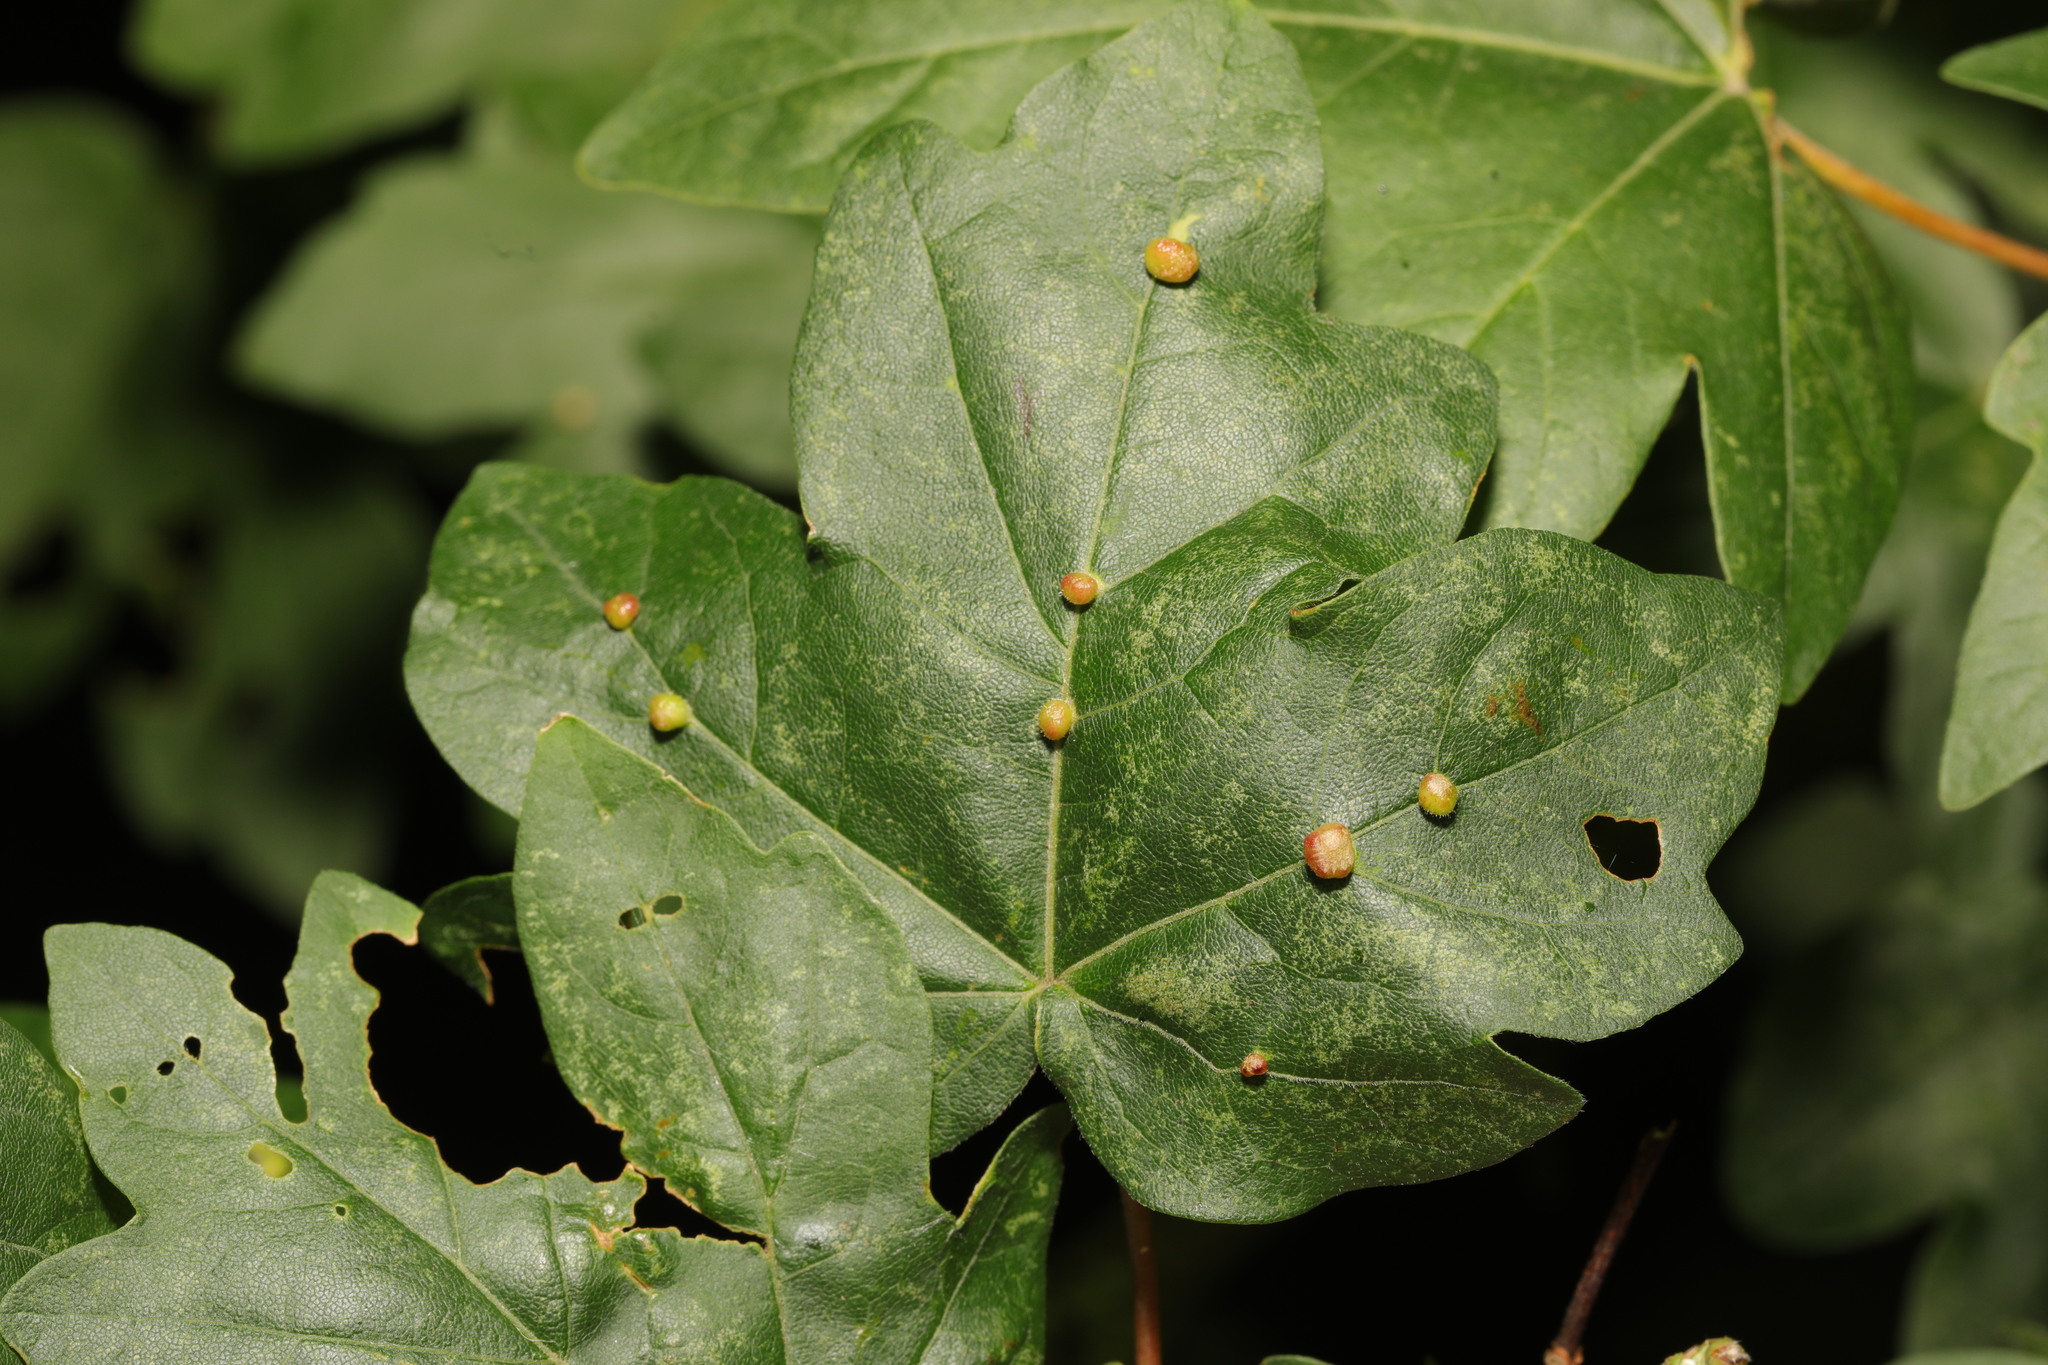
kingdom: Animalia
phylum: Arthropoda
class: Arachnida
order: Trombidiformes
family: Eriophyidae
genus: Aceria
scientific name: Aceria macrochelus
